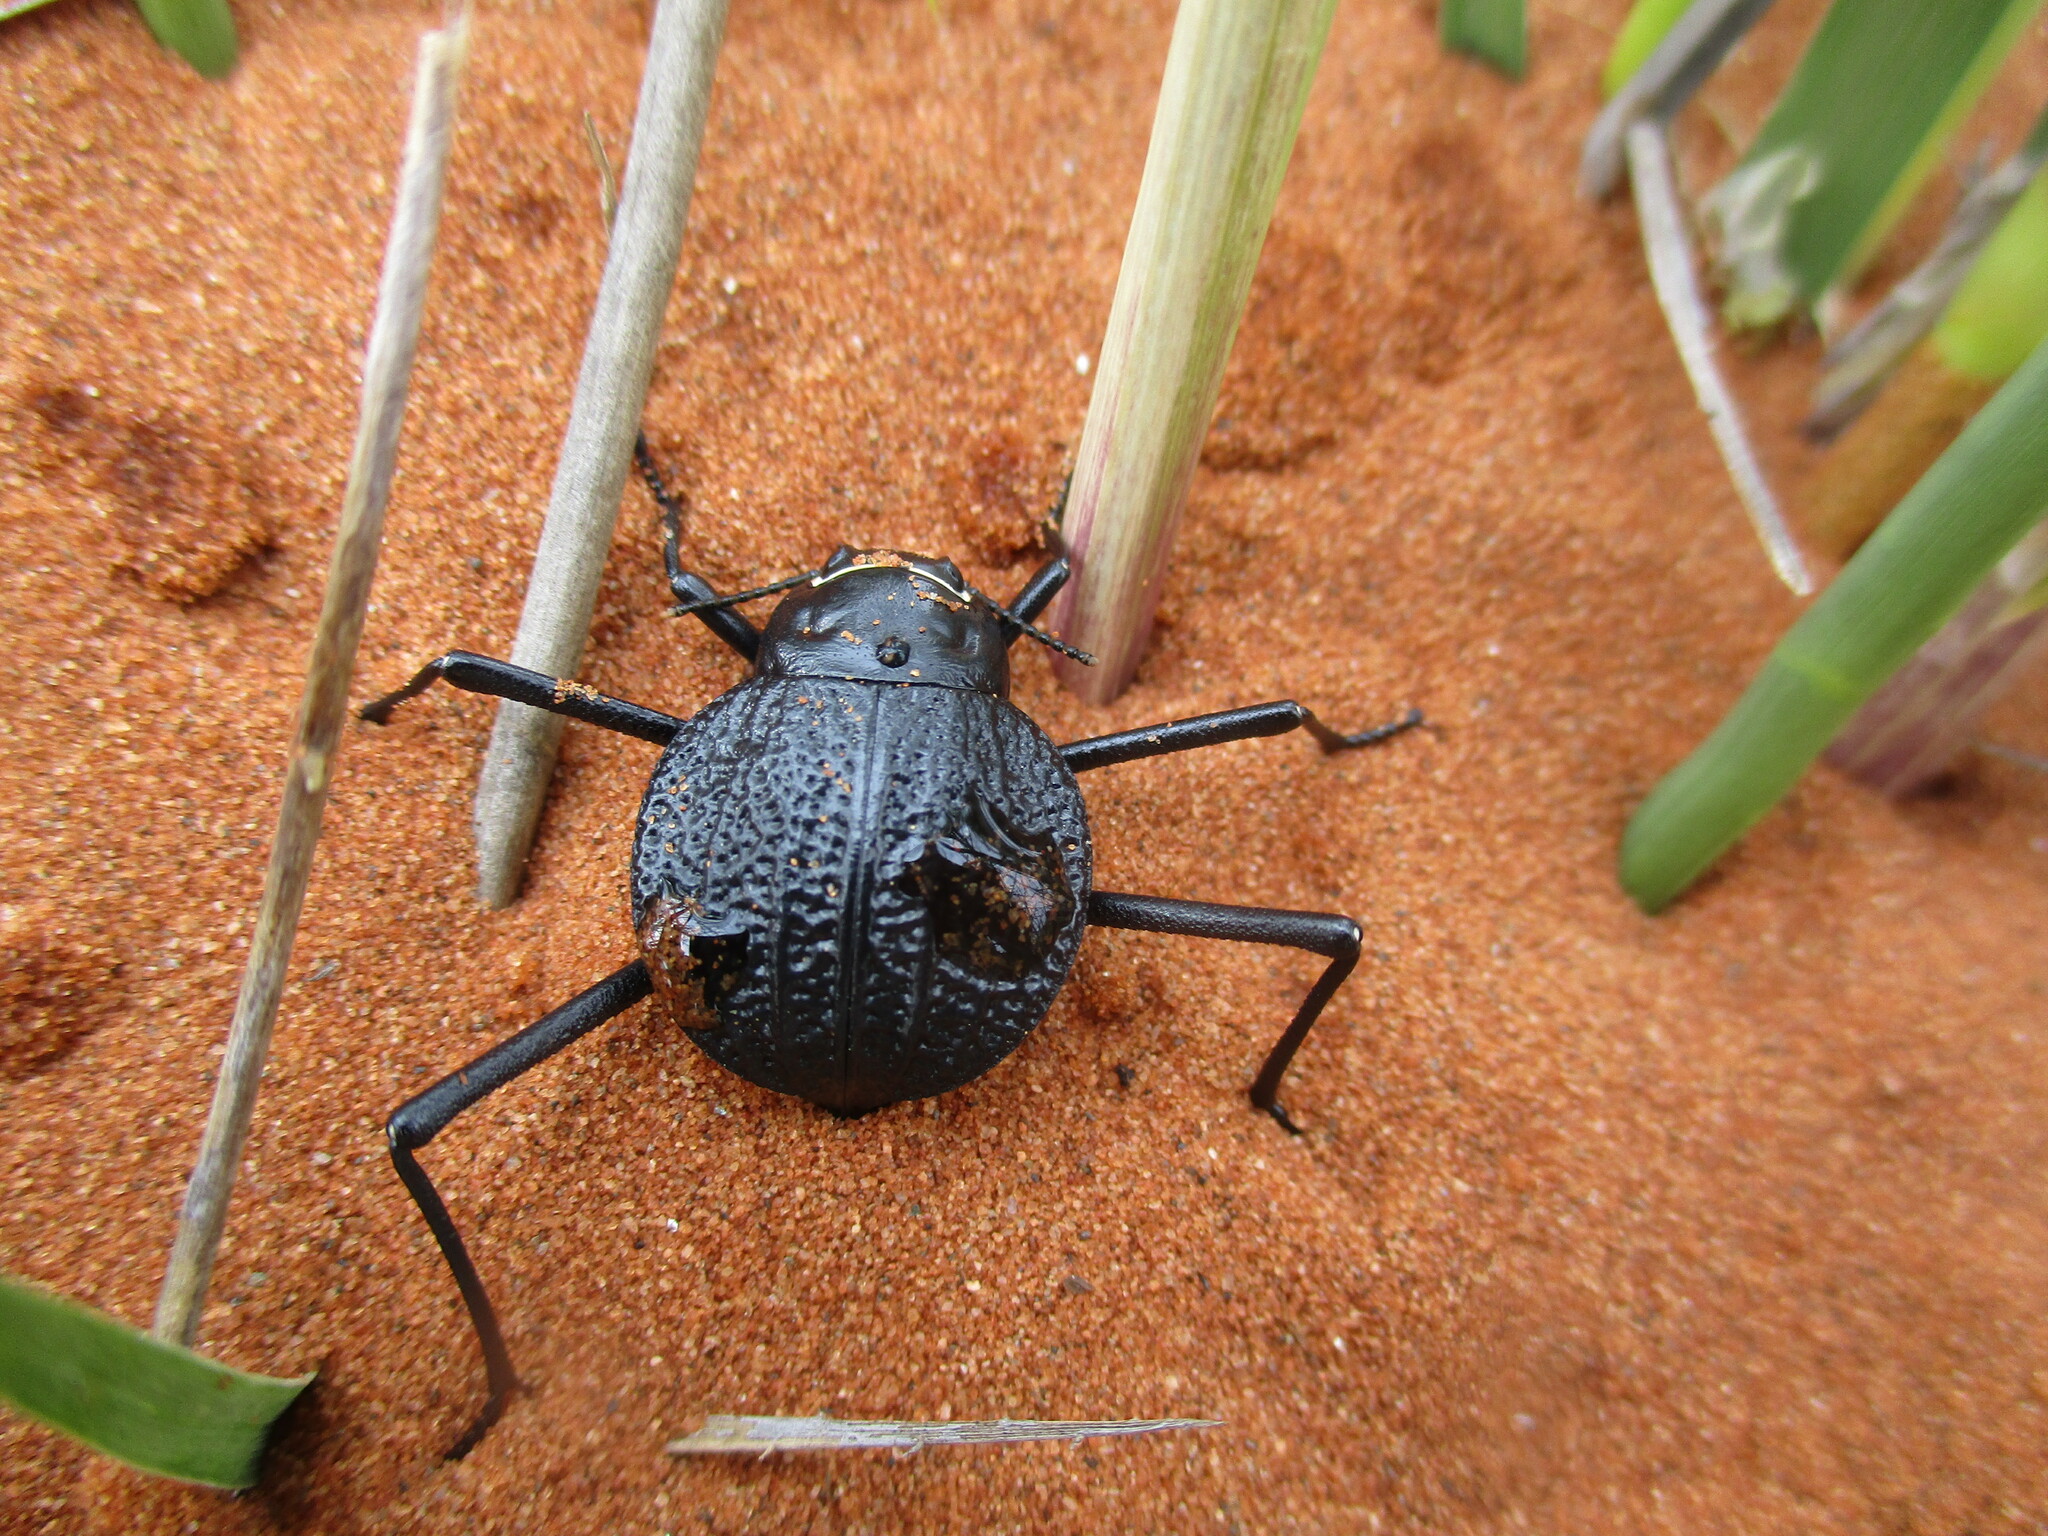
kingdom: Animalia
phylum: Arthropoda
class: Insecta
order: Coleoptera
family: Tenebrionidae
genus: Onymacris
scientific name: Onymacris
